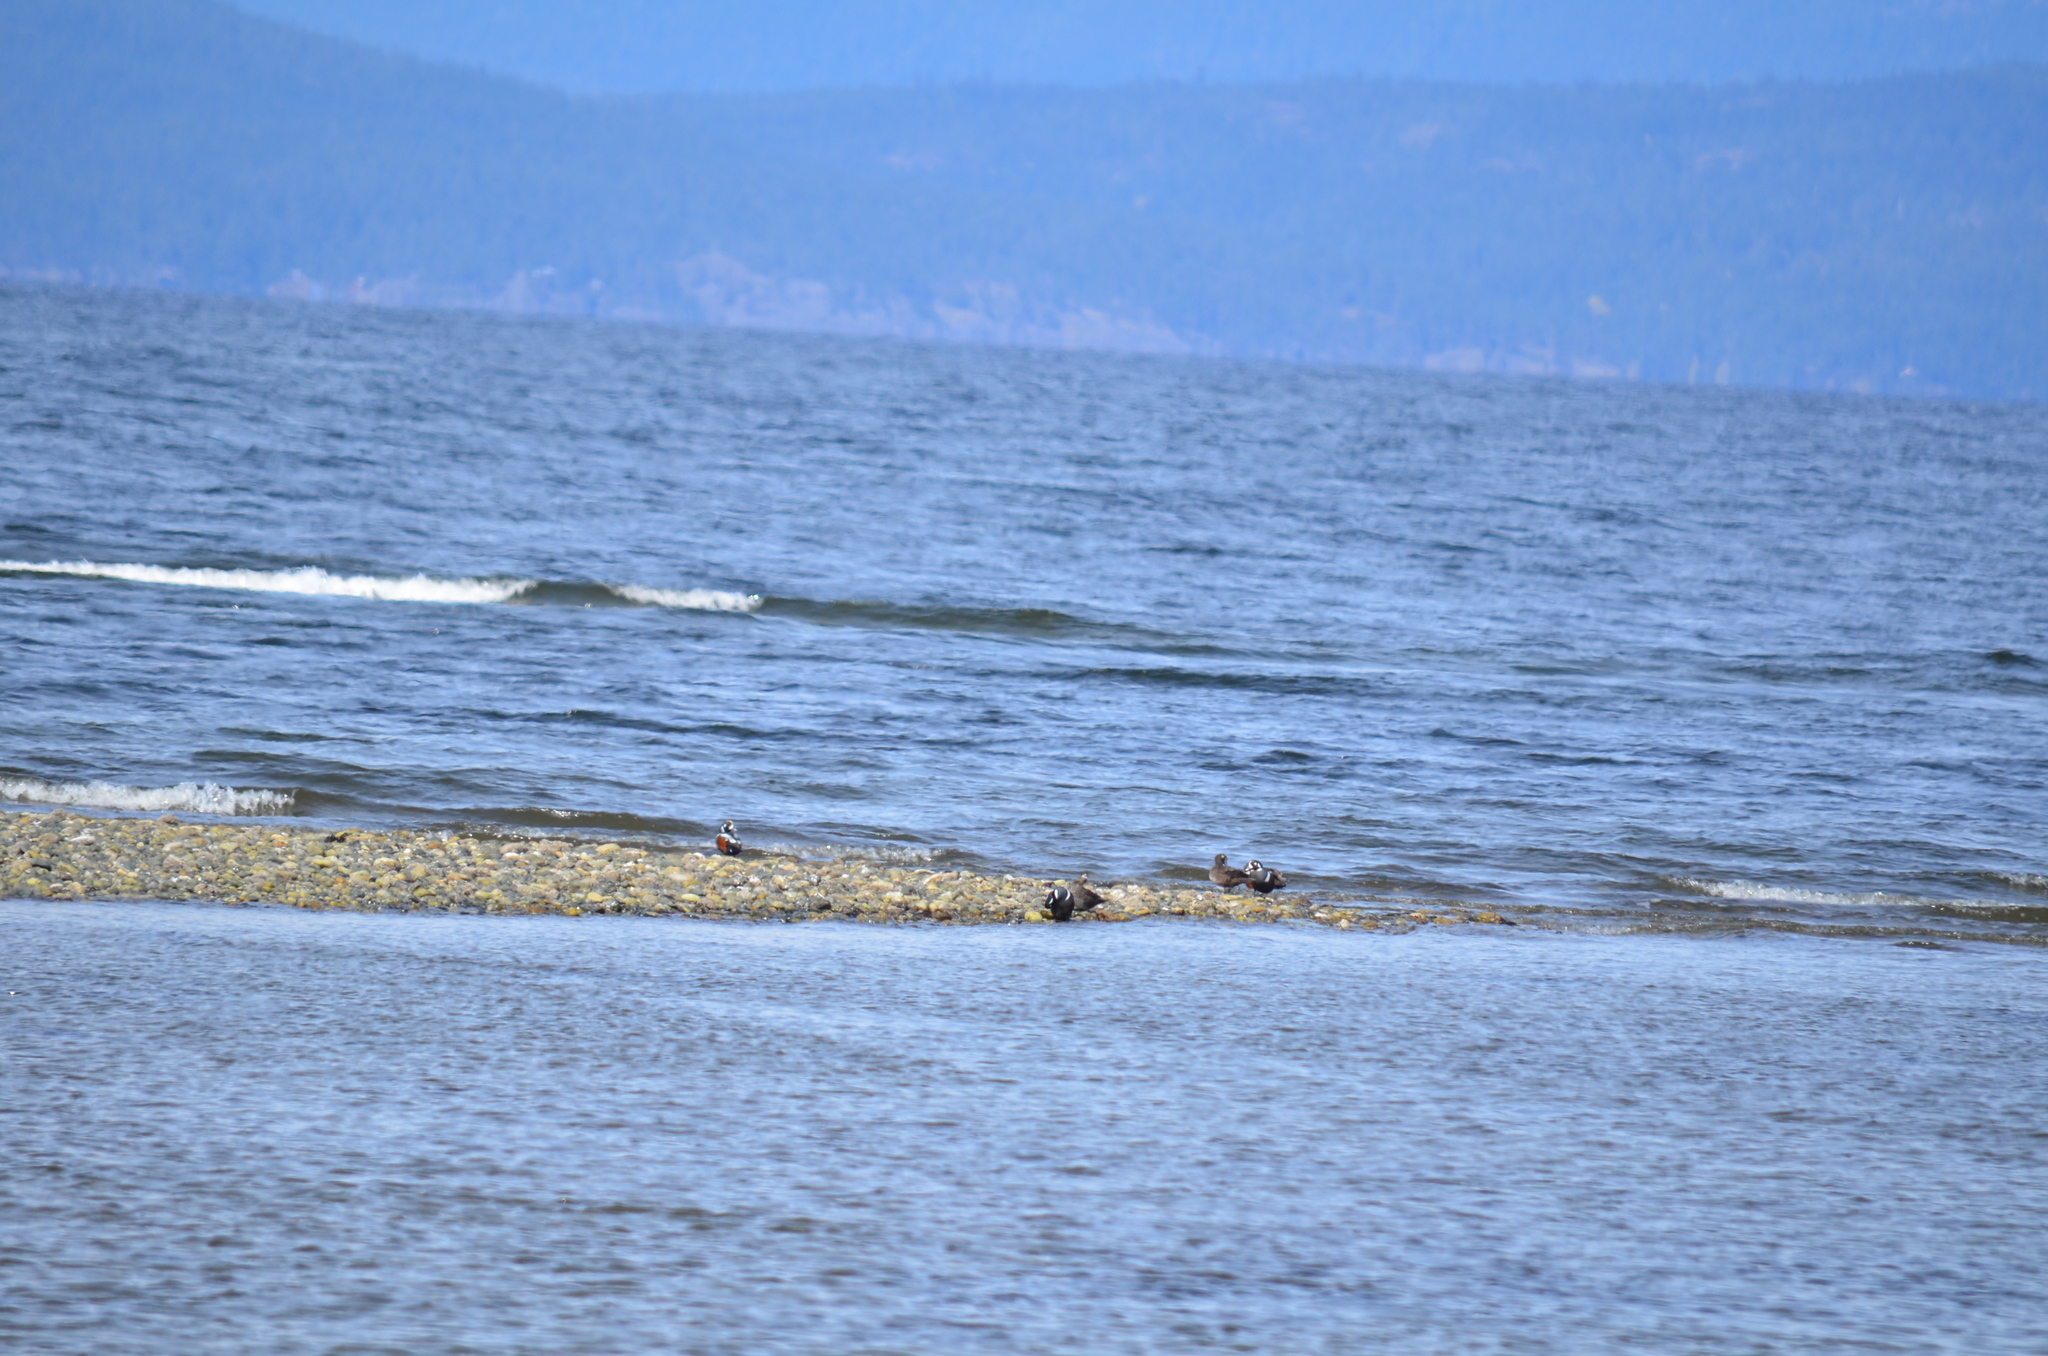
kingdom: Animalia
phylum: Chordata
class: Aves
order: Anseriformes
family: Anatidae
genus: Histrionicus
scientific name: Histrionicus histrionicus
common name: Harlequin duck
